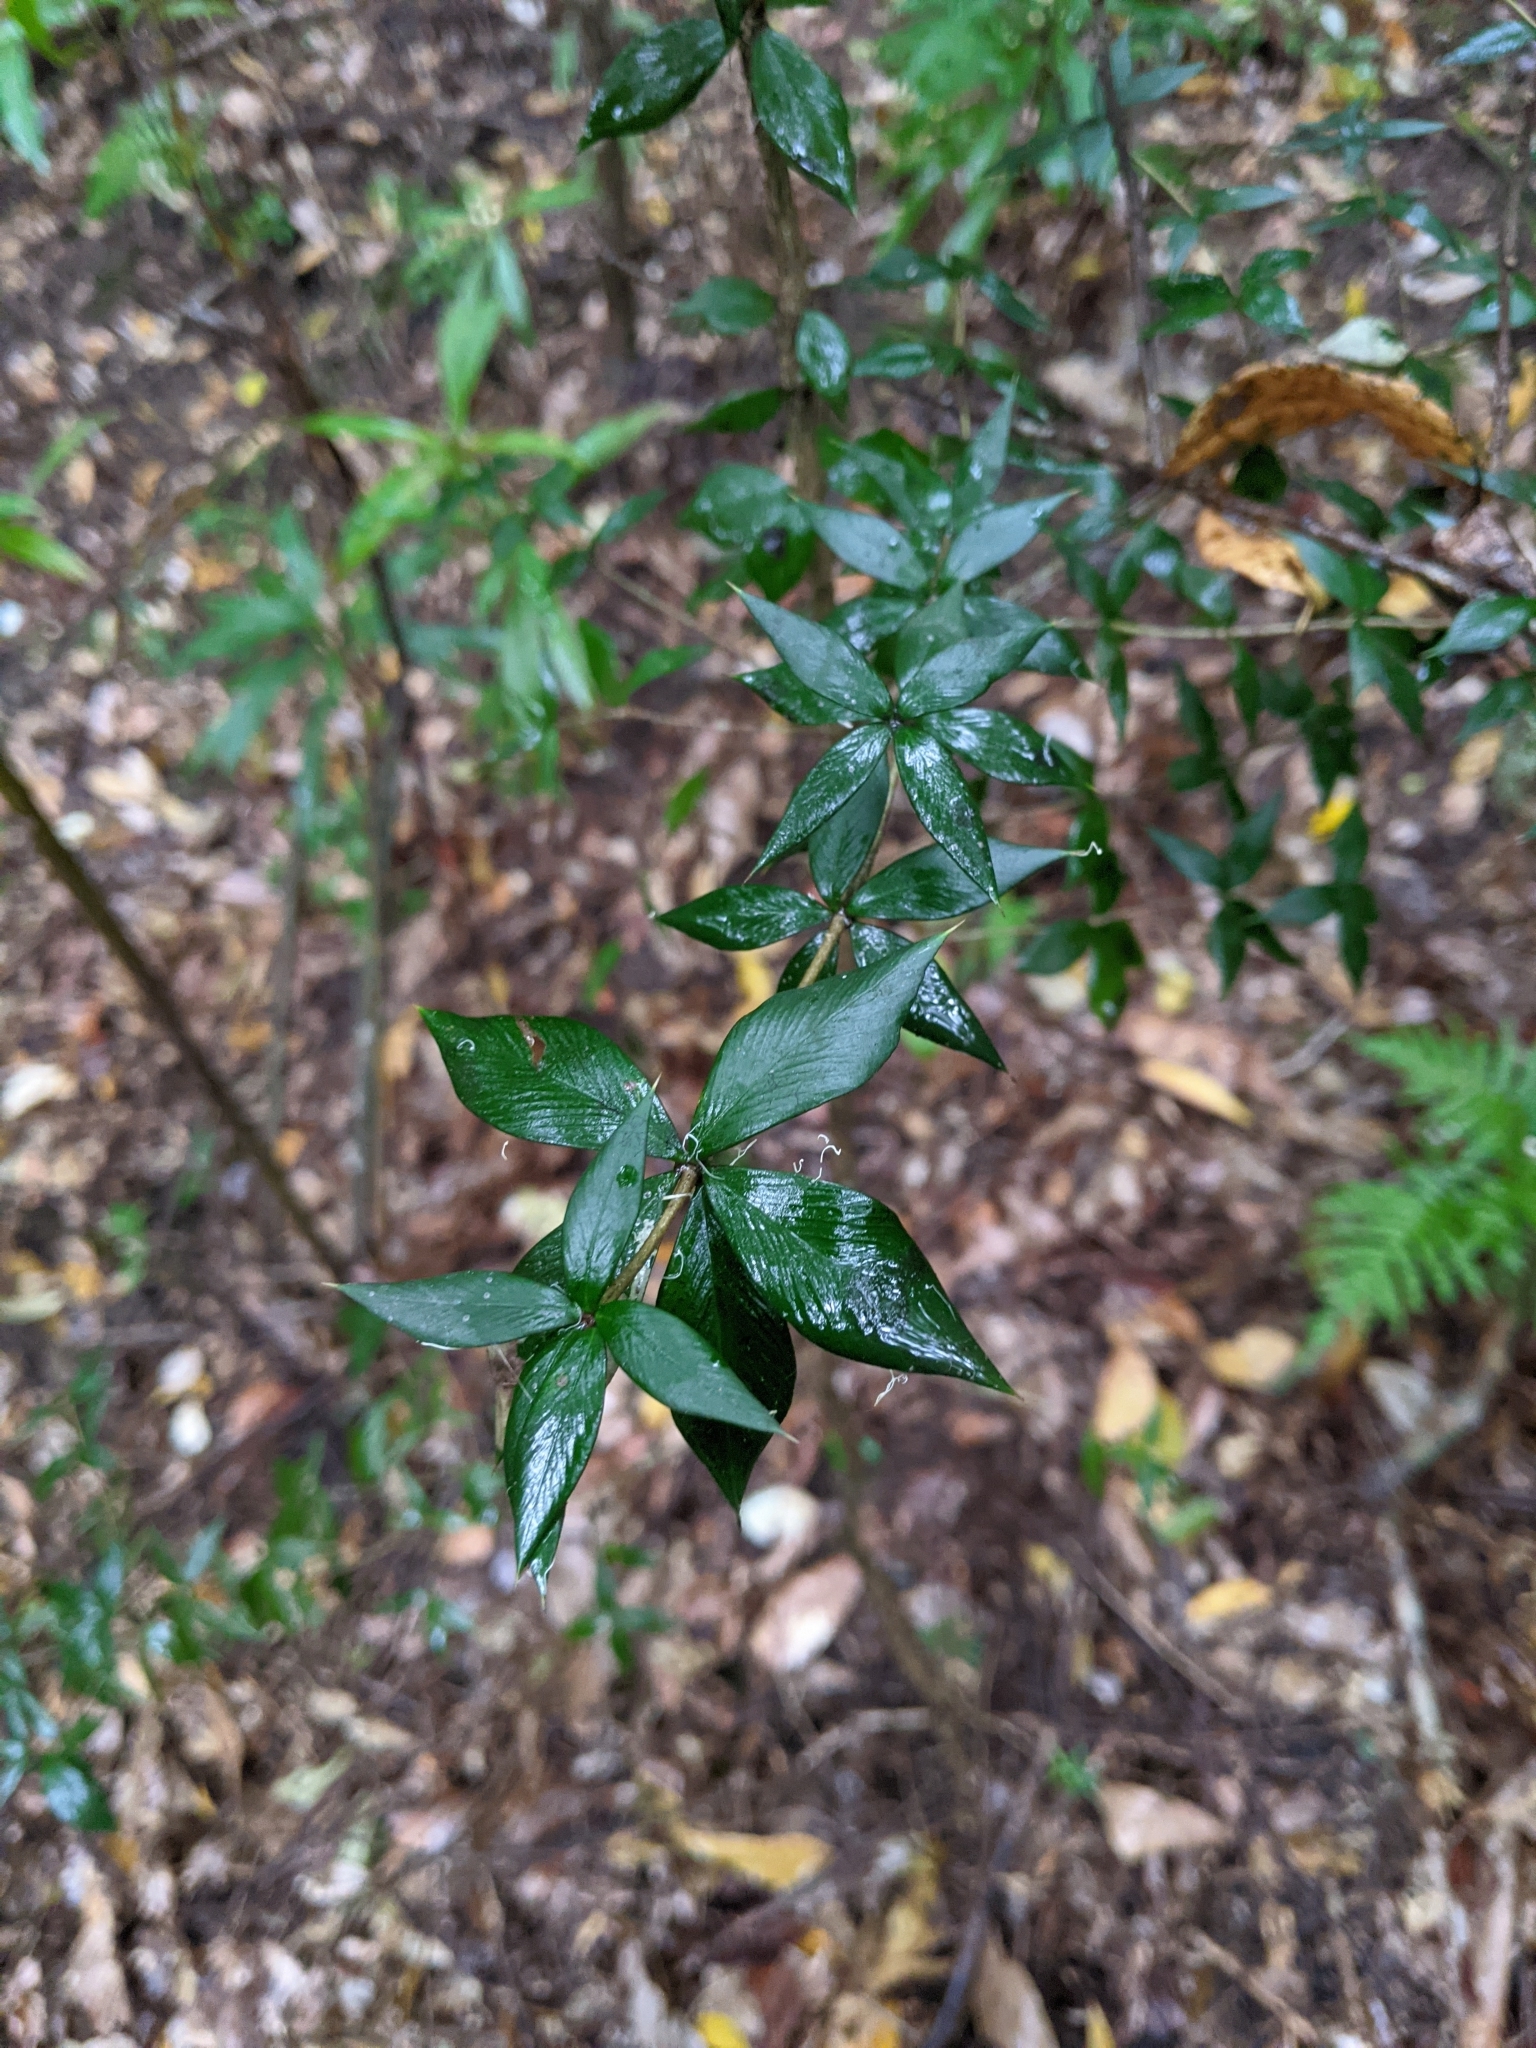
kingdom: Plantae
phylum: Tracheophyta
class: Magnoliopsida
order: Gentianales
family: Apocynaceae
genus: Alyxia
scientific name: Alyxia ruscifolia
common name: Chainfruit
